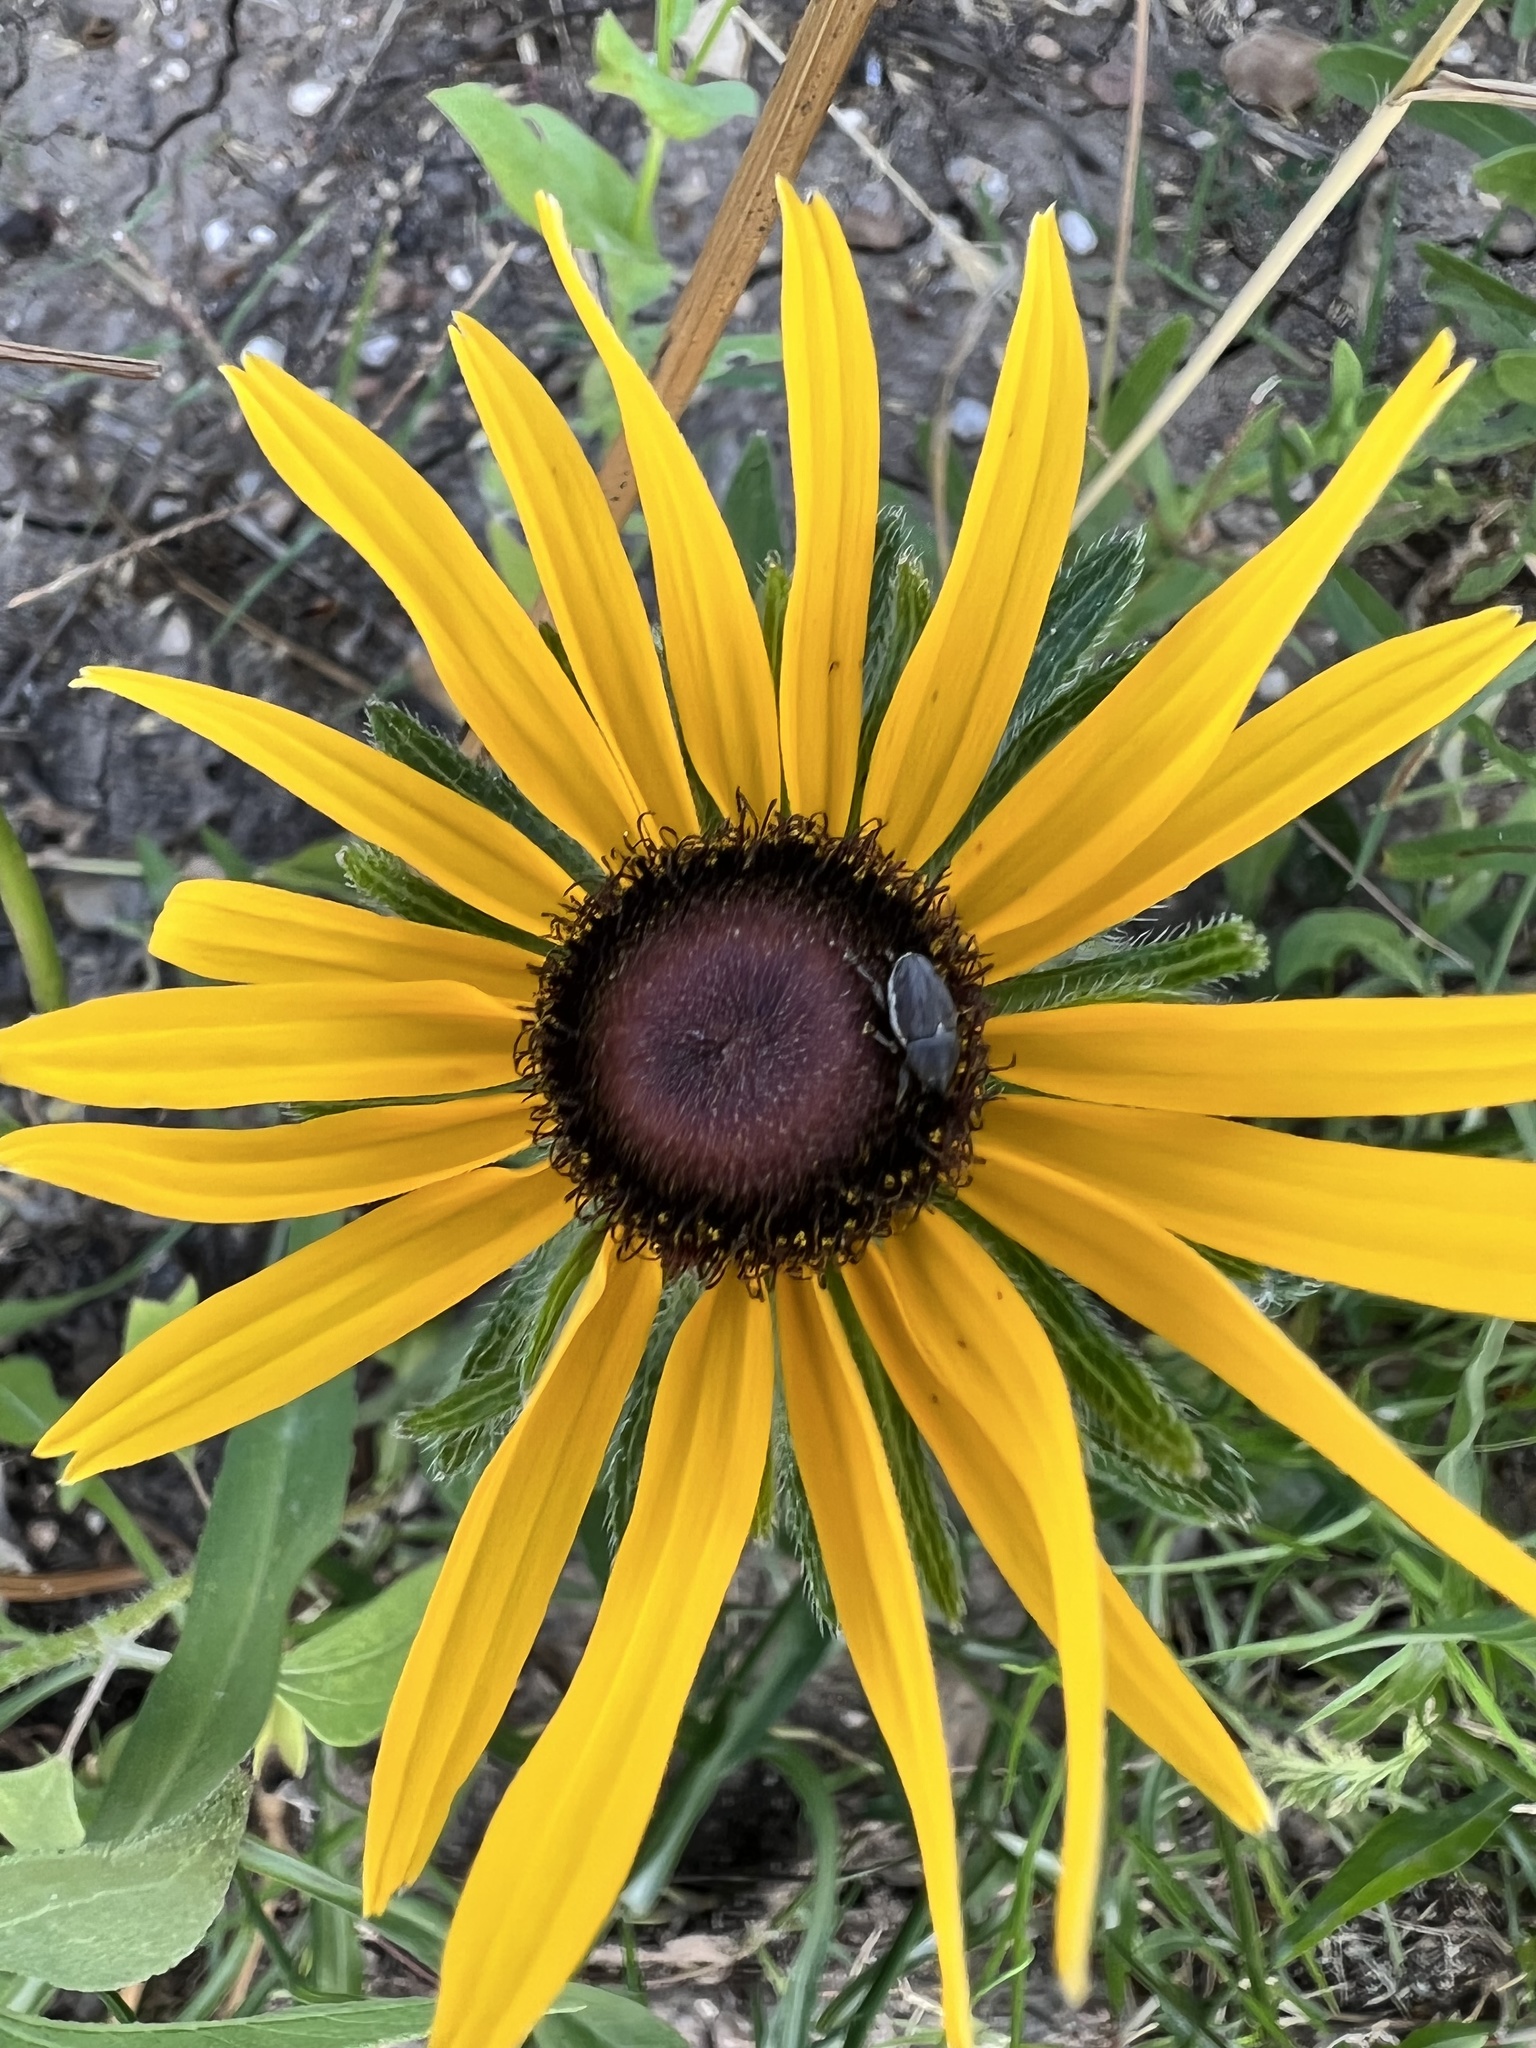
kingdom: Plantae
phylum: Tracheophyta
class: Magnoliopsida
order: Asterales
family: Asteraceae
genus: Rudbeckia
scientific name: Rudbeckia hirta
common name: Black-eyed-susan
